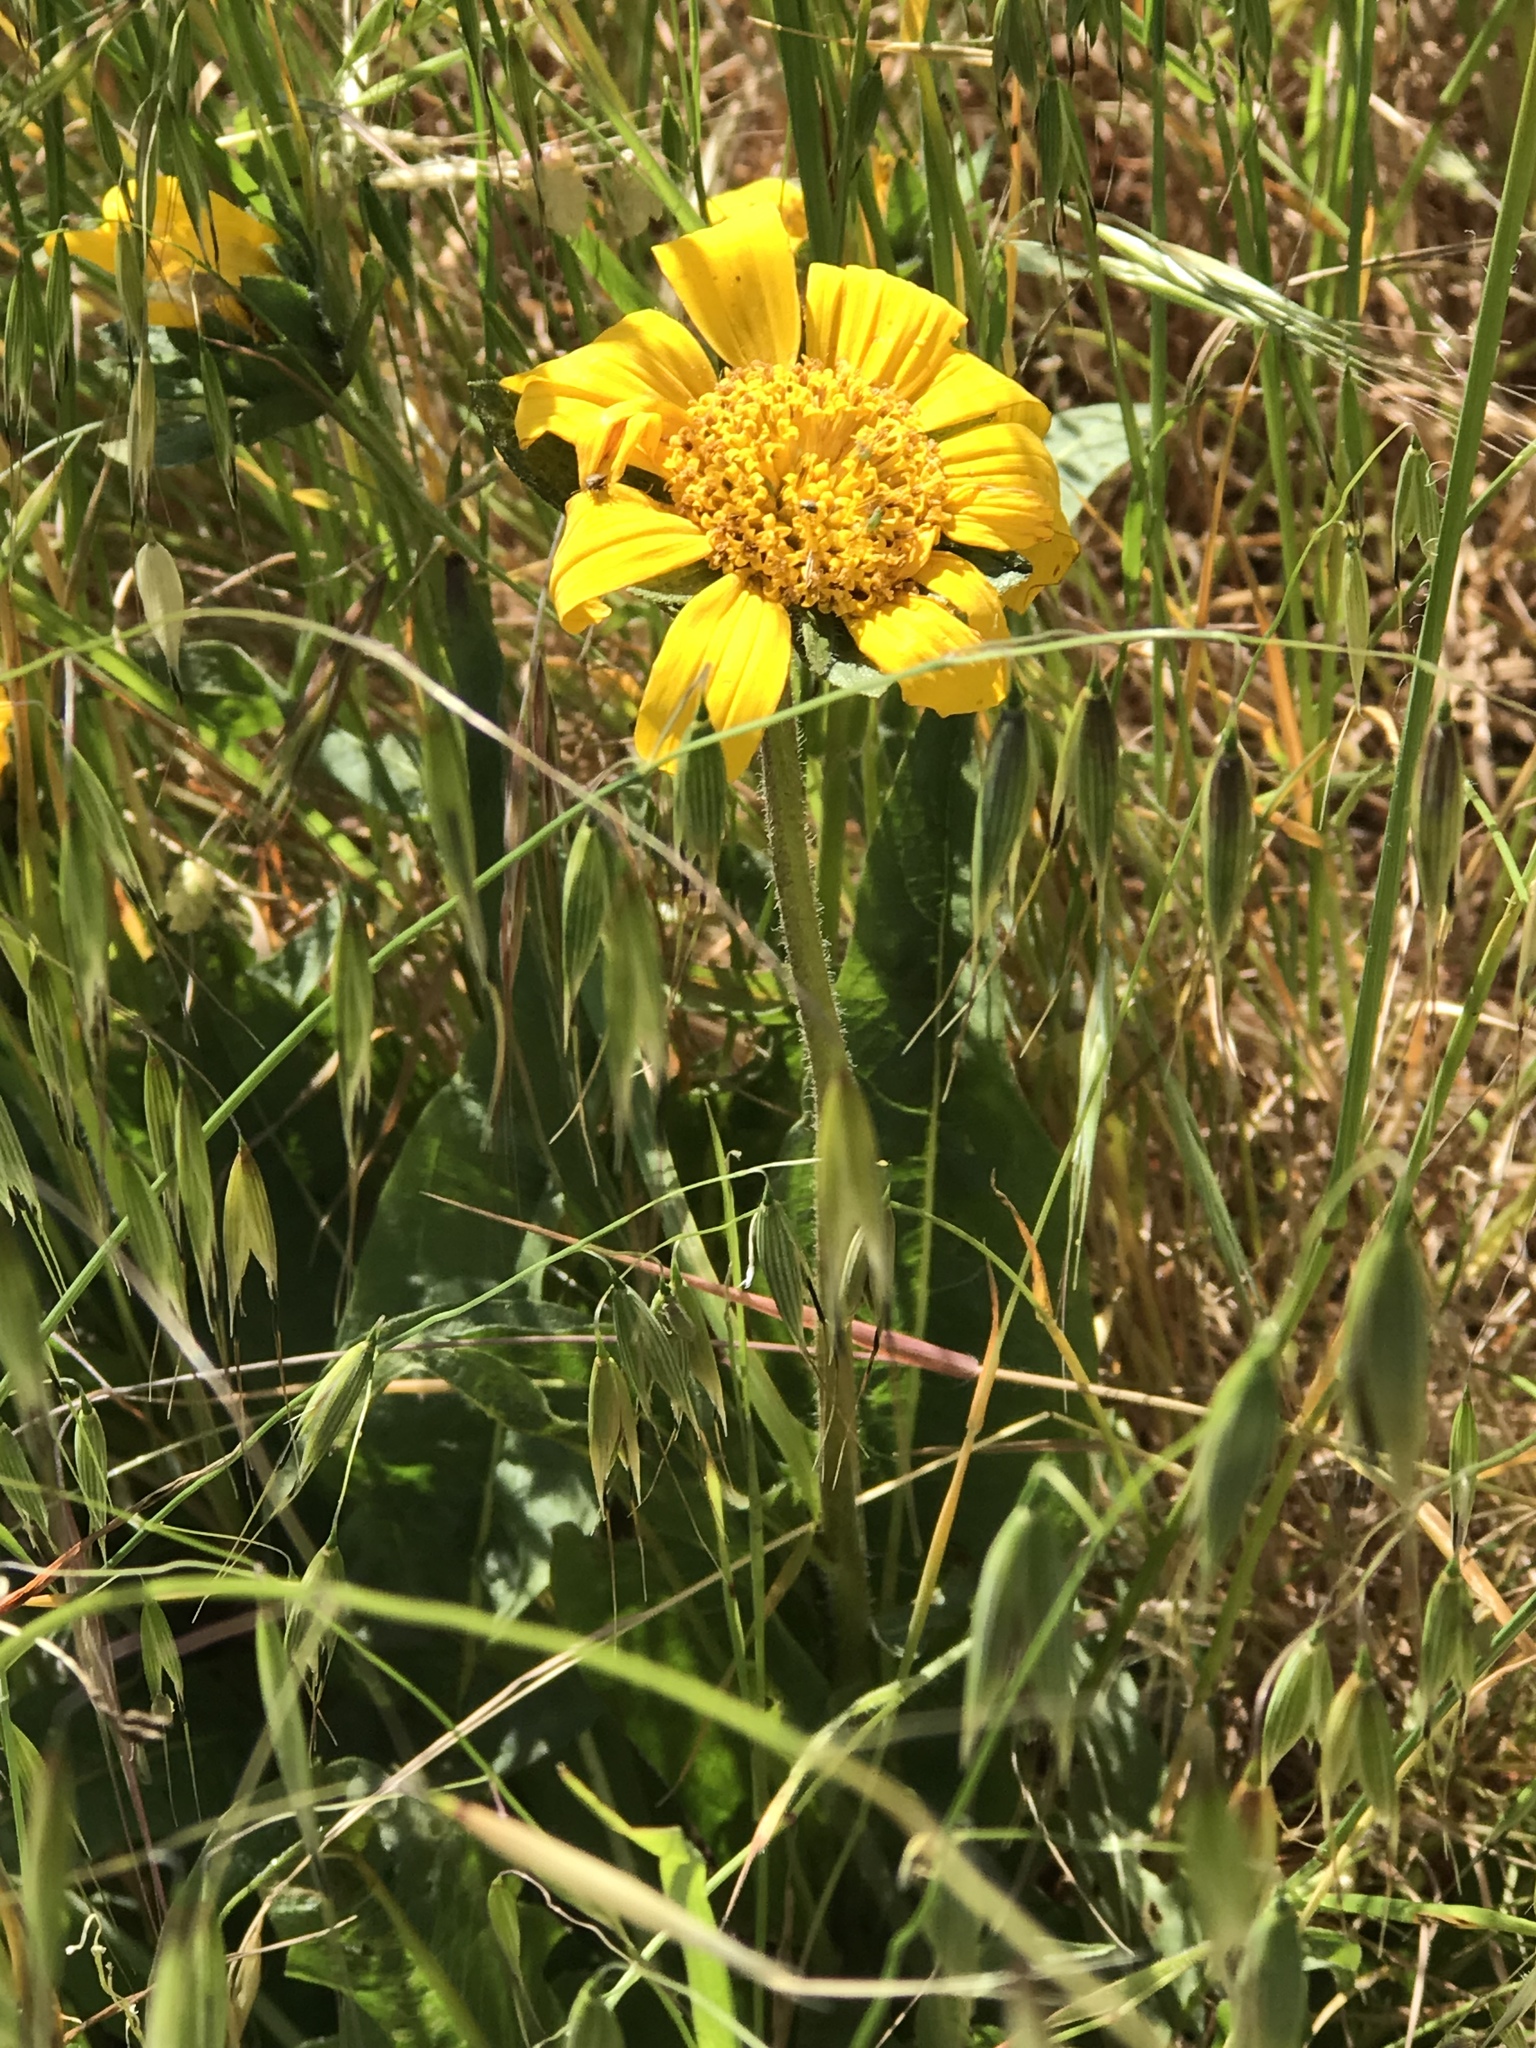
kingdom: Plantae
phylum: Tracheophyta
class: Magnoliopsida
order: Asterales
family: Asteraceae
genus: Wyethia
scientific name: Wyethia angustifolia
